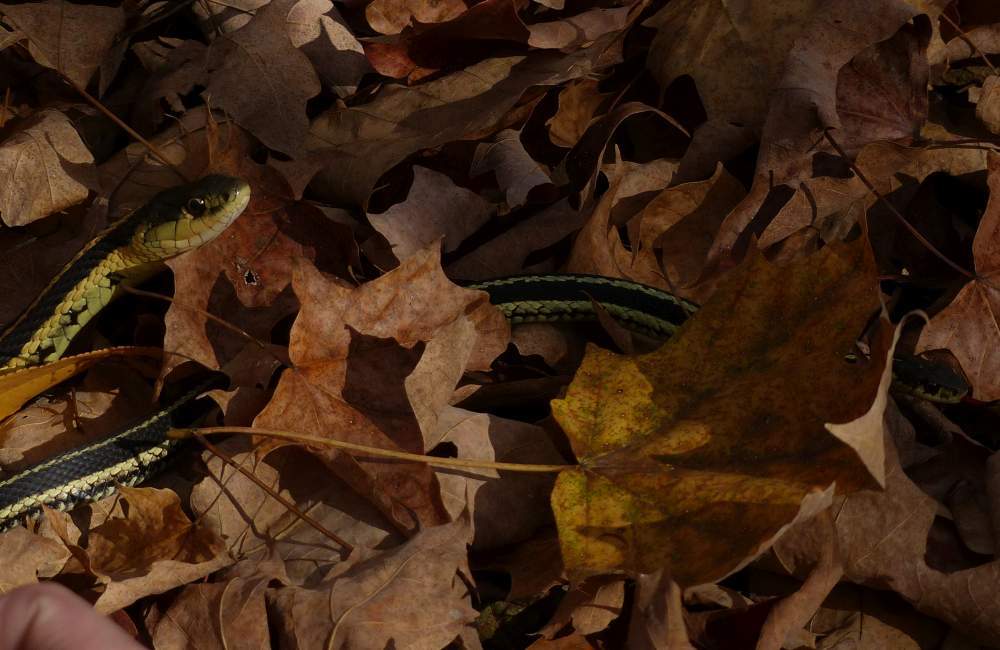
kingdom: Animalia
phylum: Chordata
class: Squamata
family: Colubridae
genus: Thamnophis
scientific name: Thamnophis sirtalis
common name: Common garter snake
